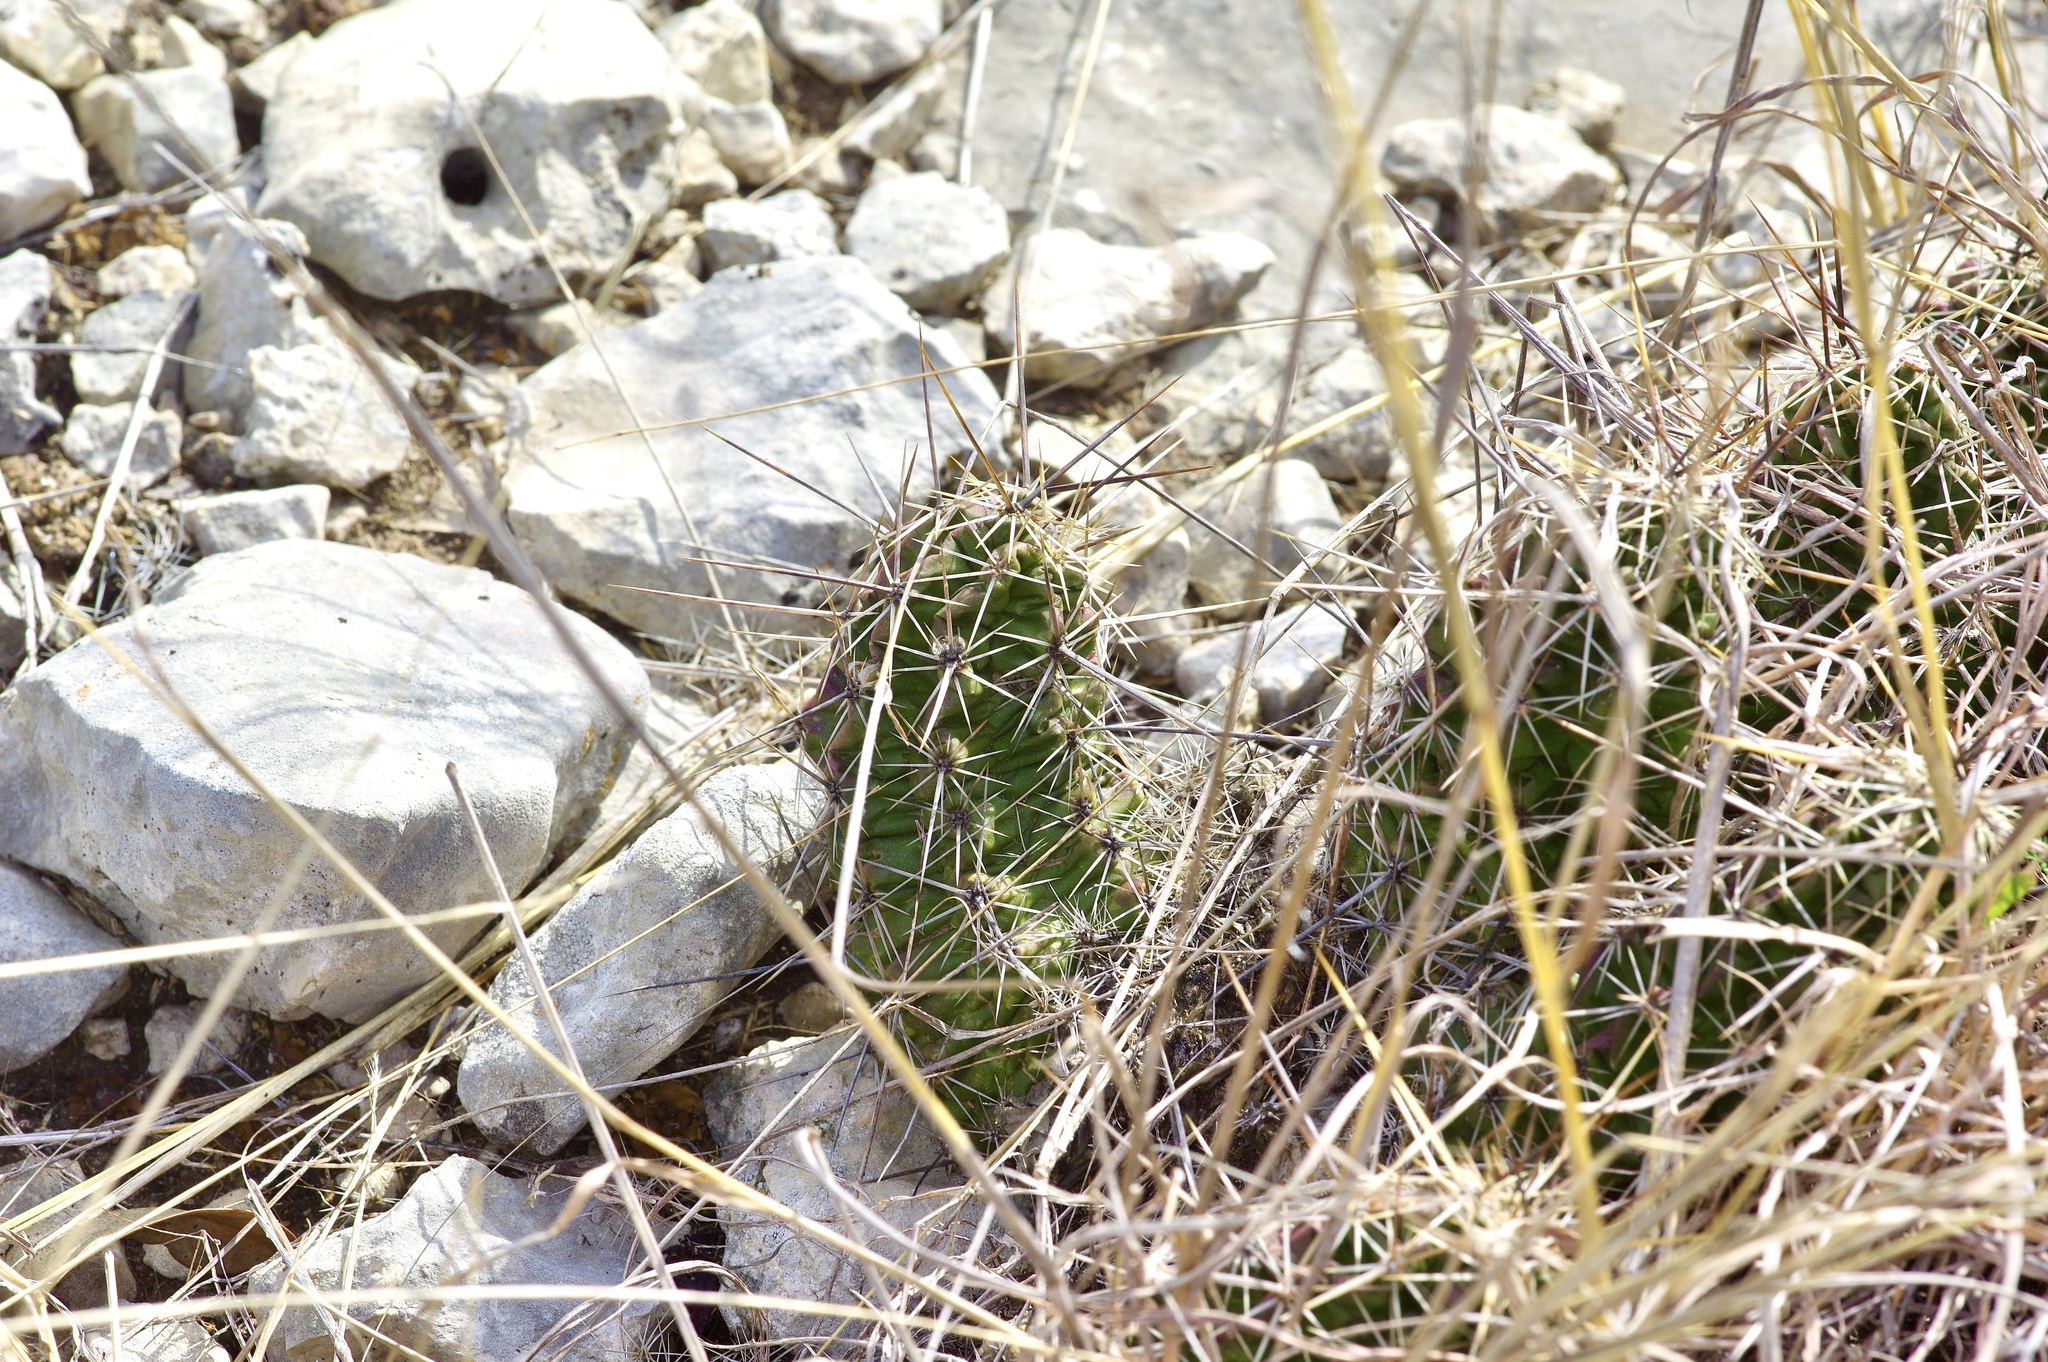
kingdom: Plantae
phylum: Tracheophyta
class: Magnoliopsida
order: Caryophyllales
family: Cactaceae
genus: Echinocereus
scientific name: Echinocereus enneacanthus
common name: Pitaya
